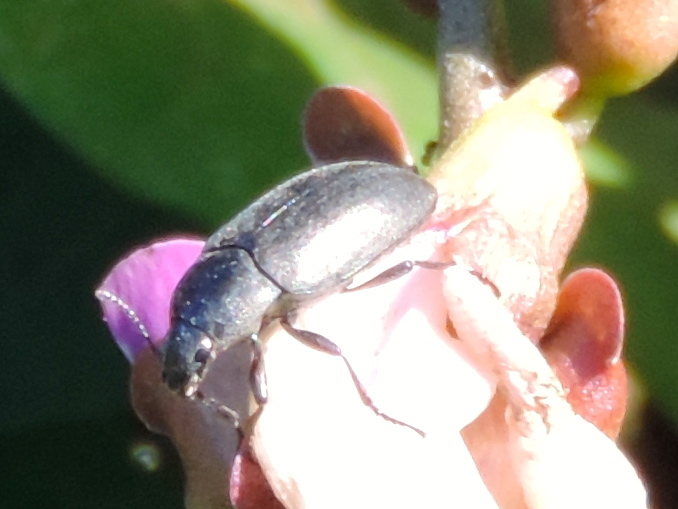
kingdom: Animalia
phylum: Arthropoda
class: Insecta
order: Coleoptera
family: Tenebrionidae
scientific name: Tenebrionidae
